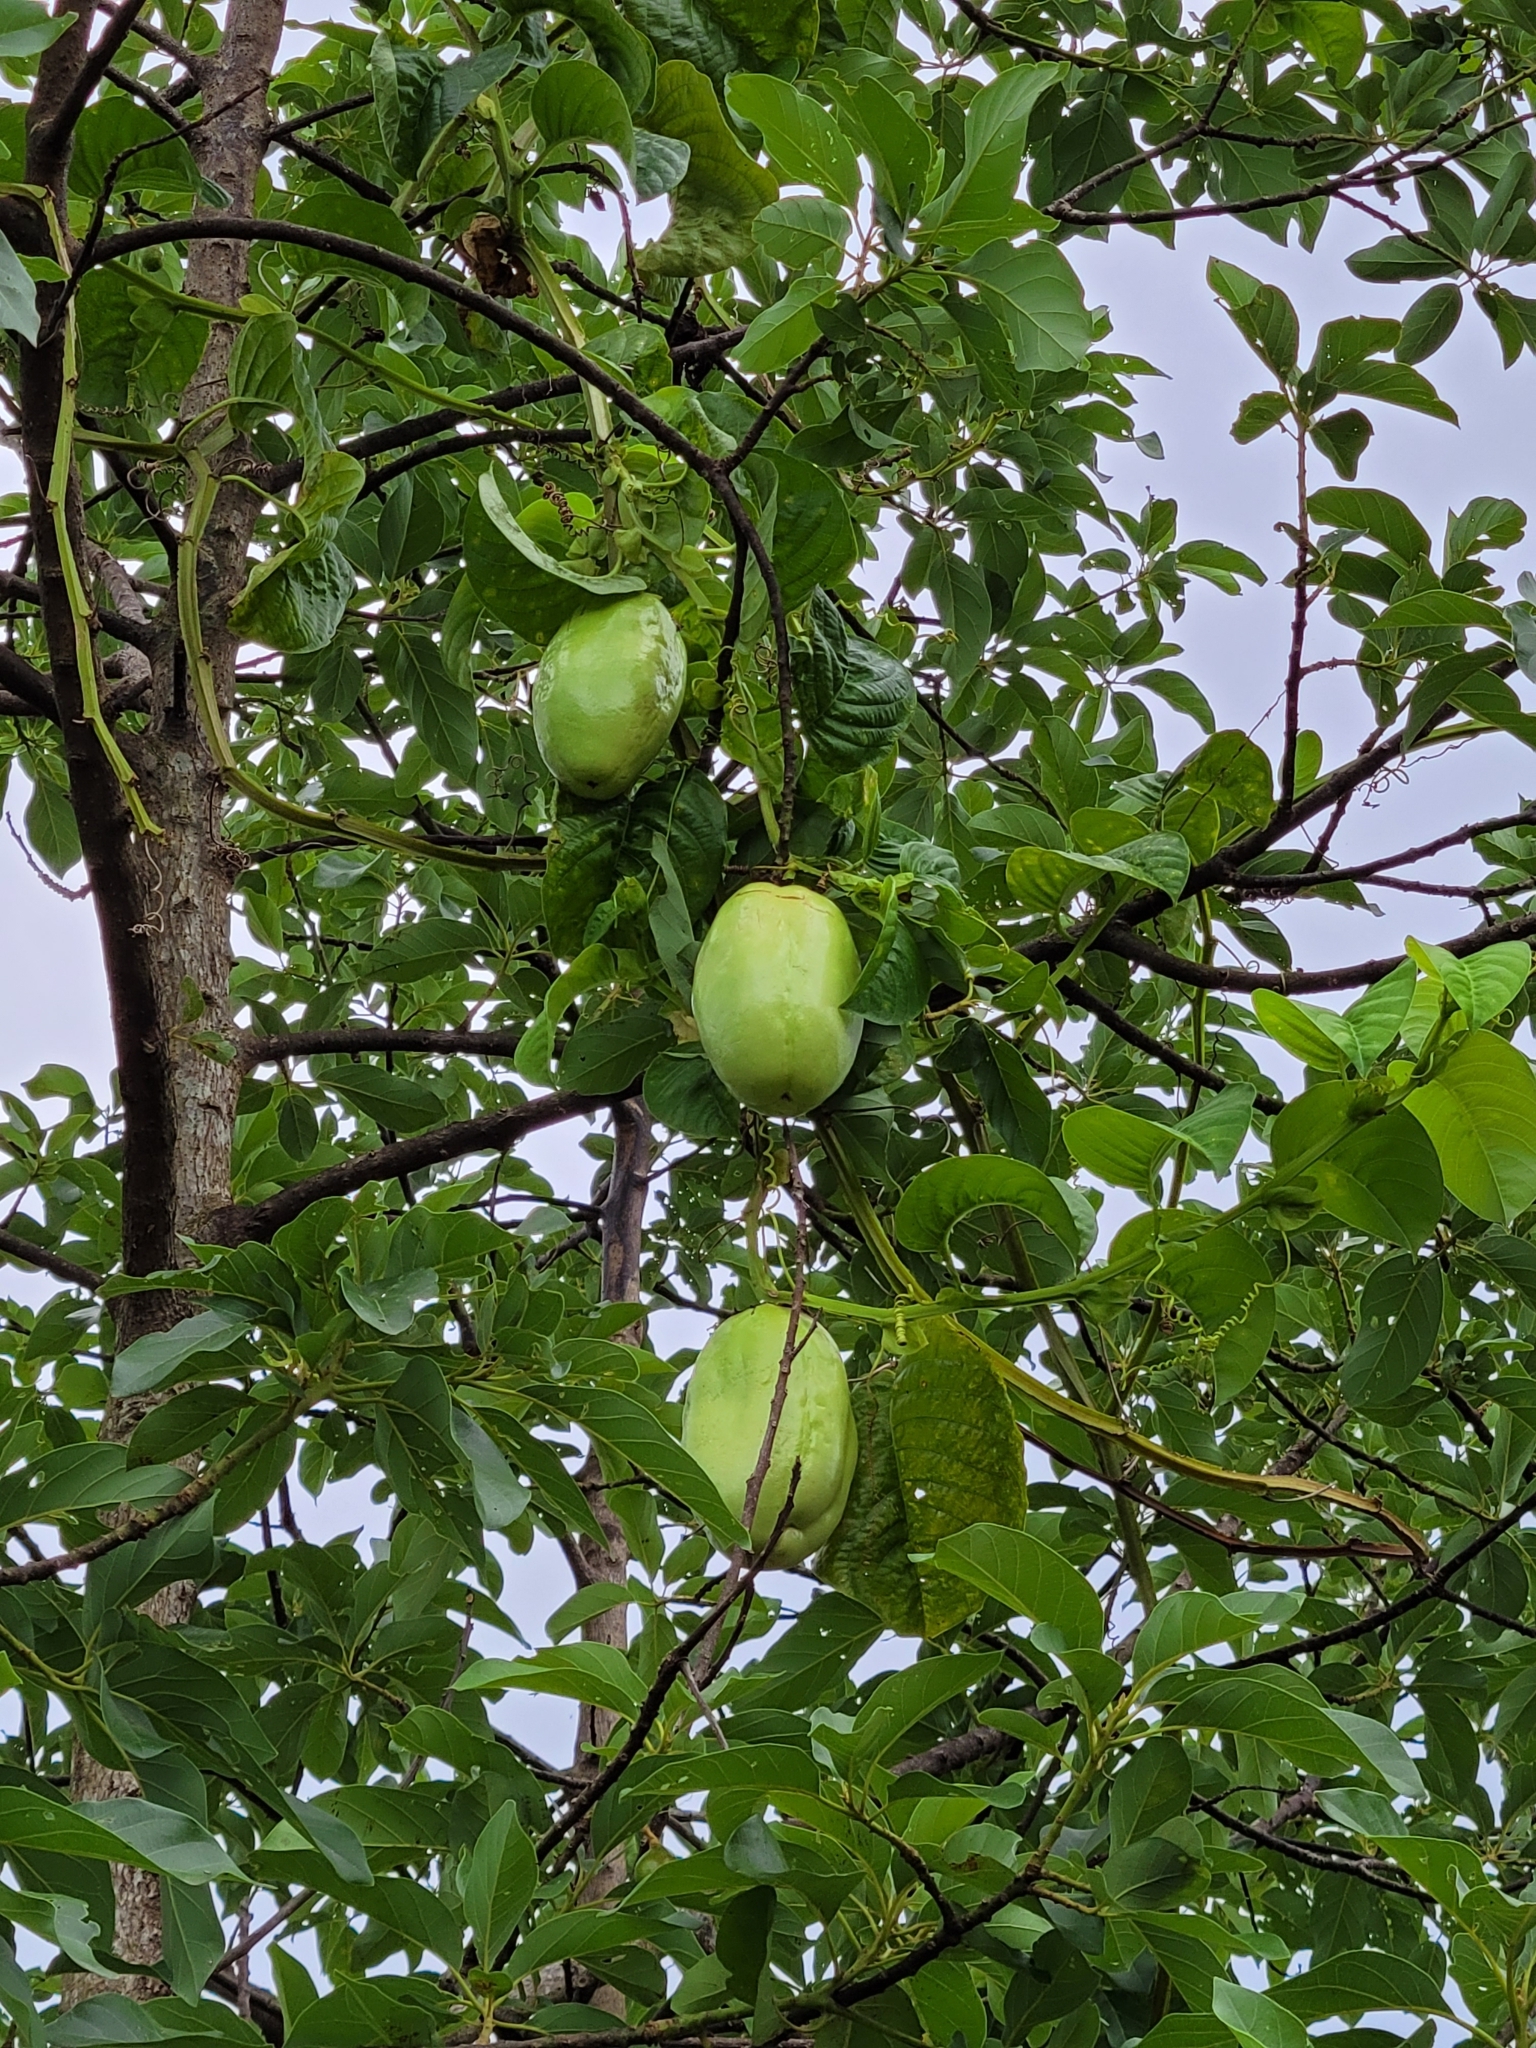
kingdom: Plantae
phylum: Tracheophyta
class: Magnoliopsida
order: Malpighiales
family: Passifloraceae
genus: Passiflora
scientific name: Passiflora quadrangularis
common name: Giant granadilla
